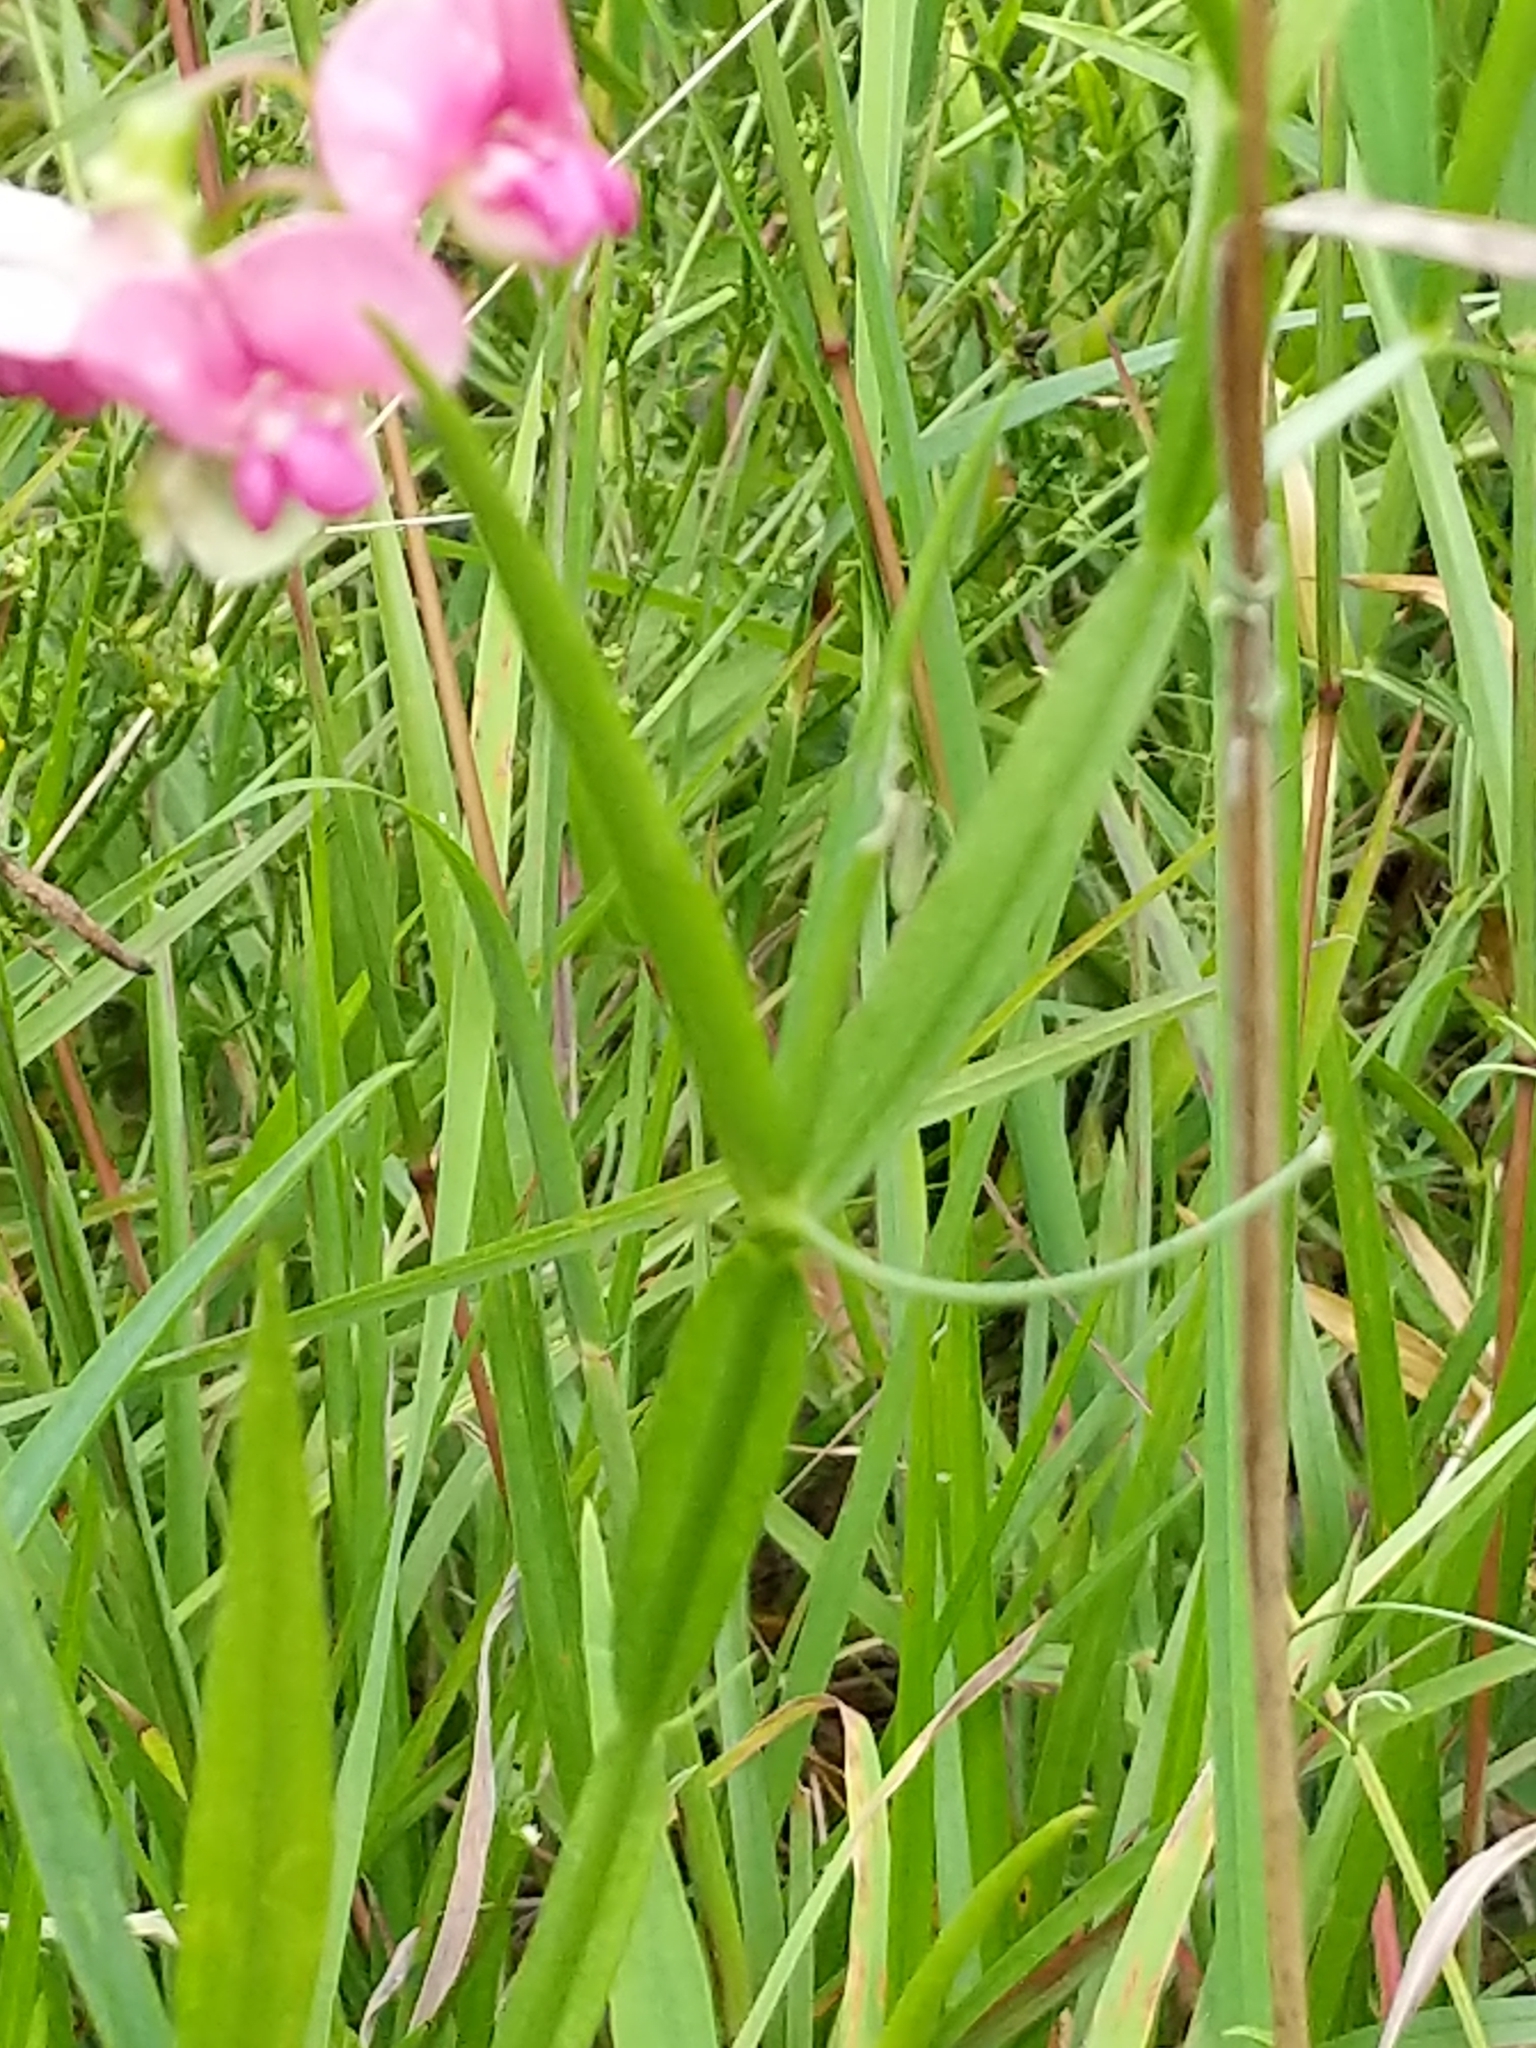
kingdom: Plantae
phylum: Tracheophyta
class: Magnoliopsida
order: Fabales
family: Fabaceae
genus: Lathyrus
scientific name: Lathyrus sylvestris
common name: Flat pea
